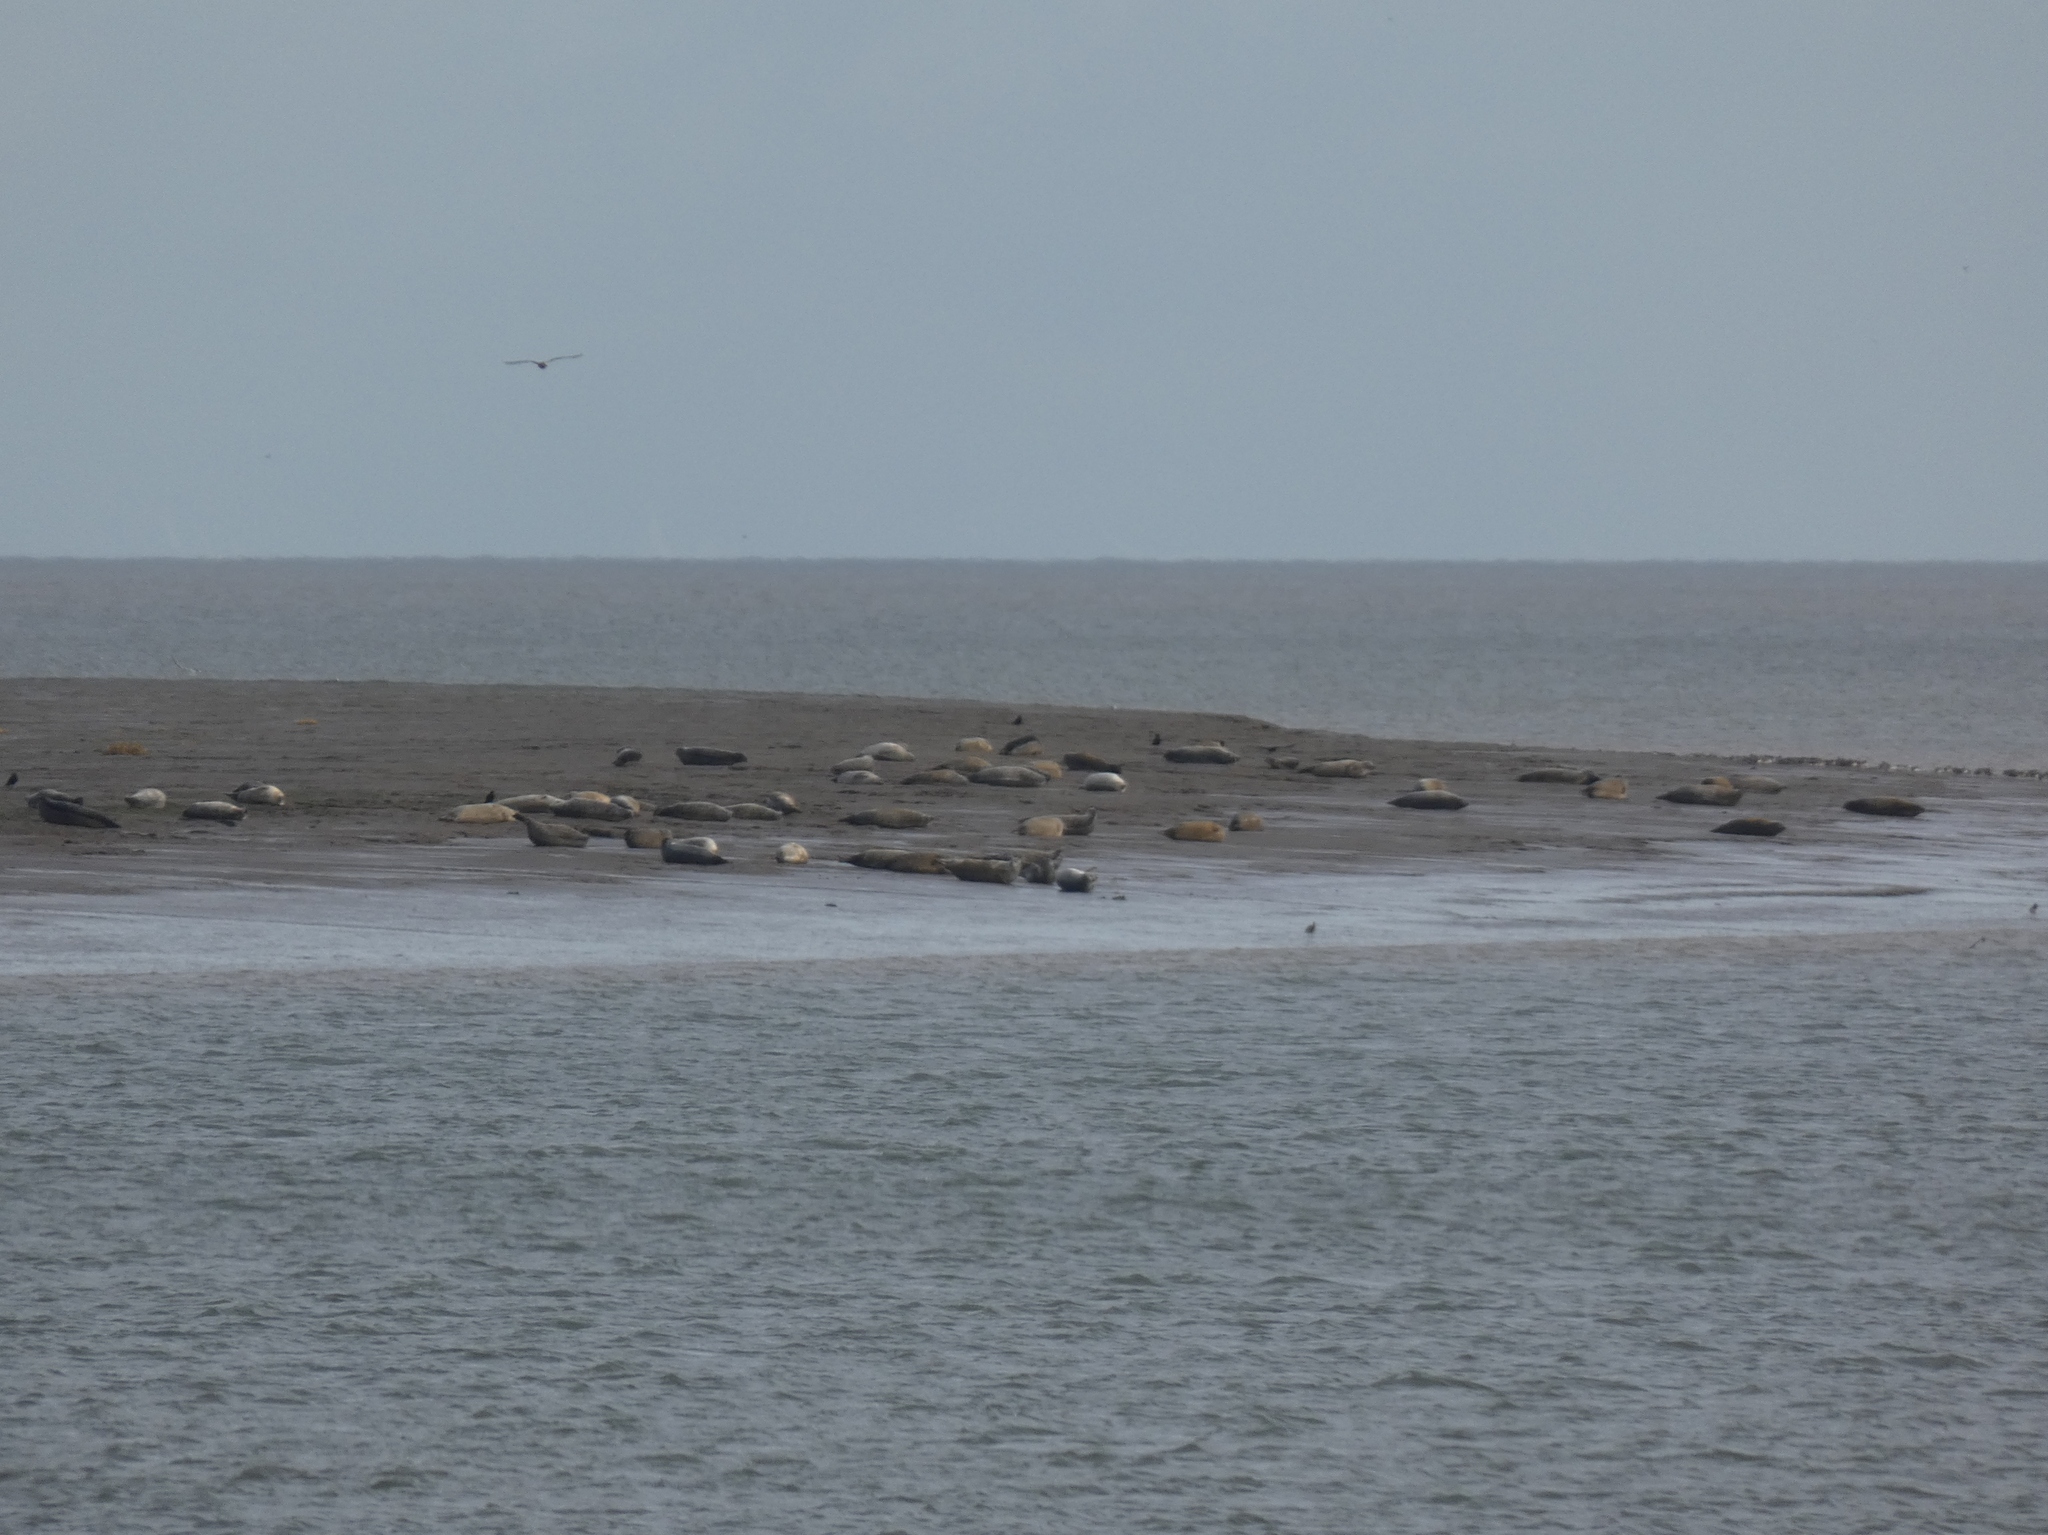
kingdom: Animalia
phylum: Chordata
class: Mammalia
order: Carnivora
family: Phocidae
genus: Phoca
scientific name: Phoca vitulina
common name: Harbor seal
